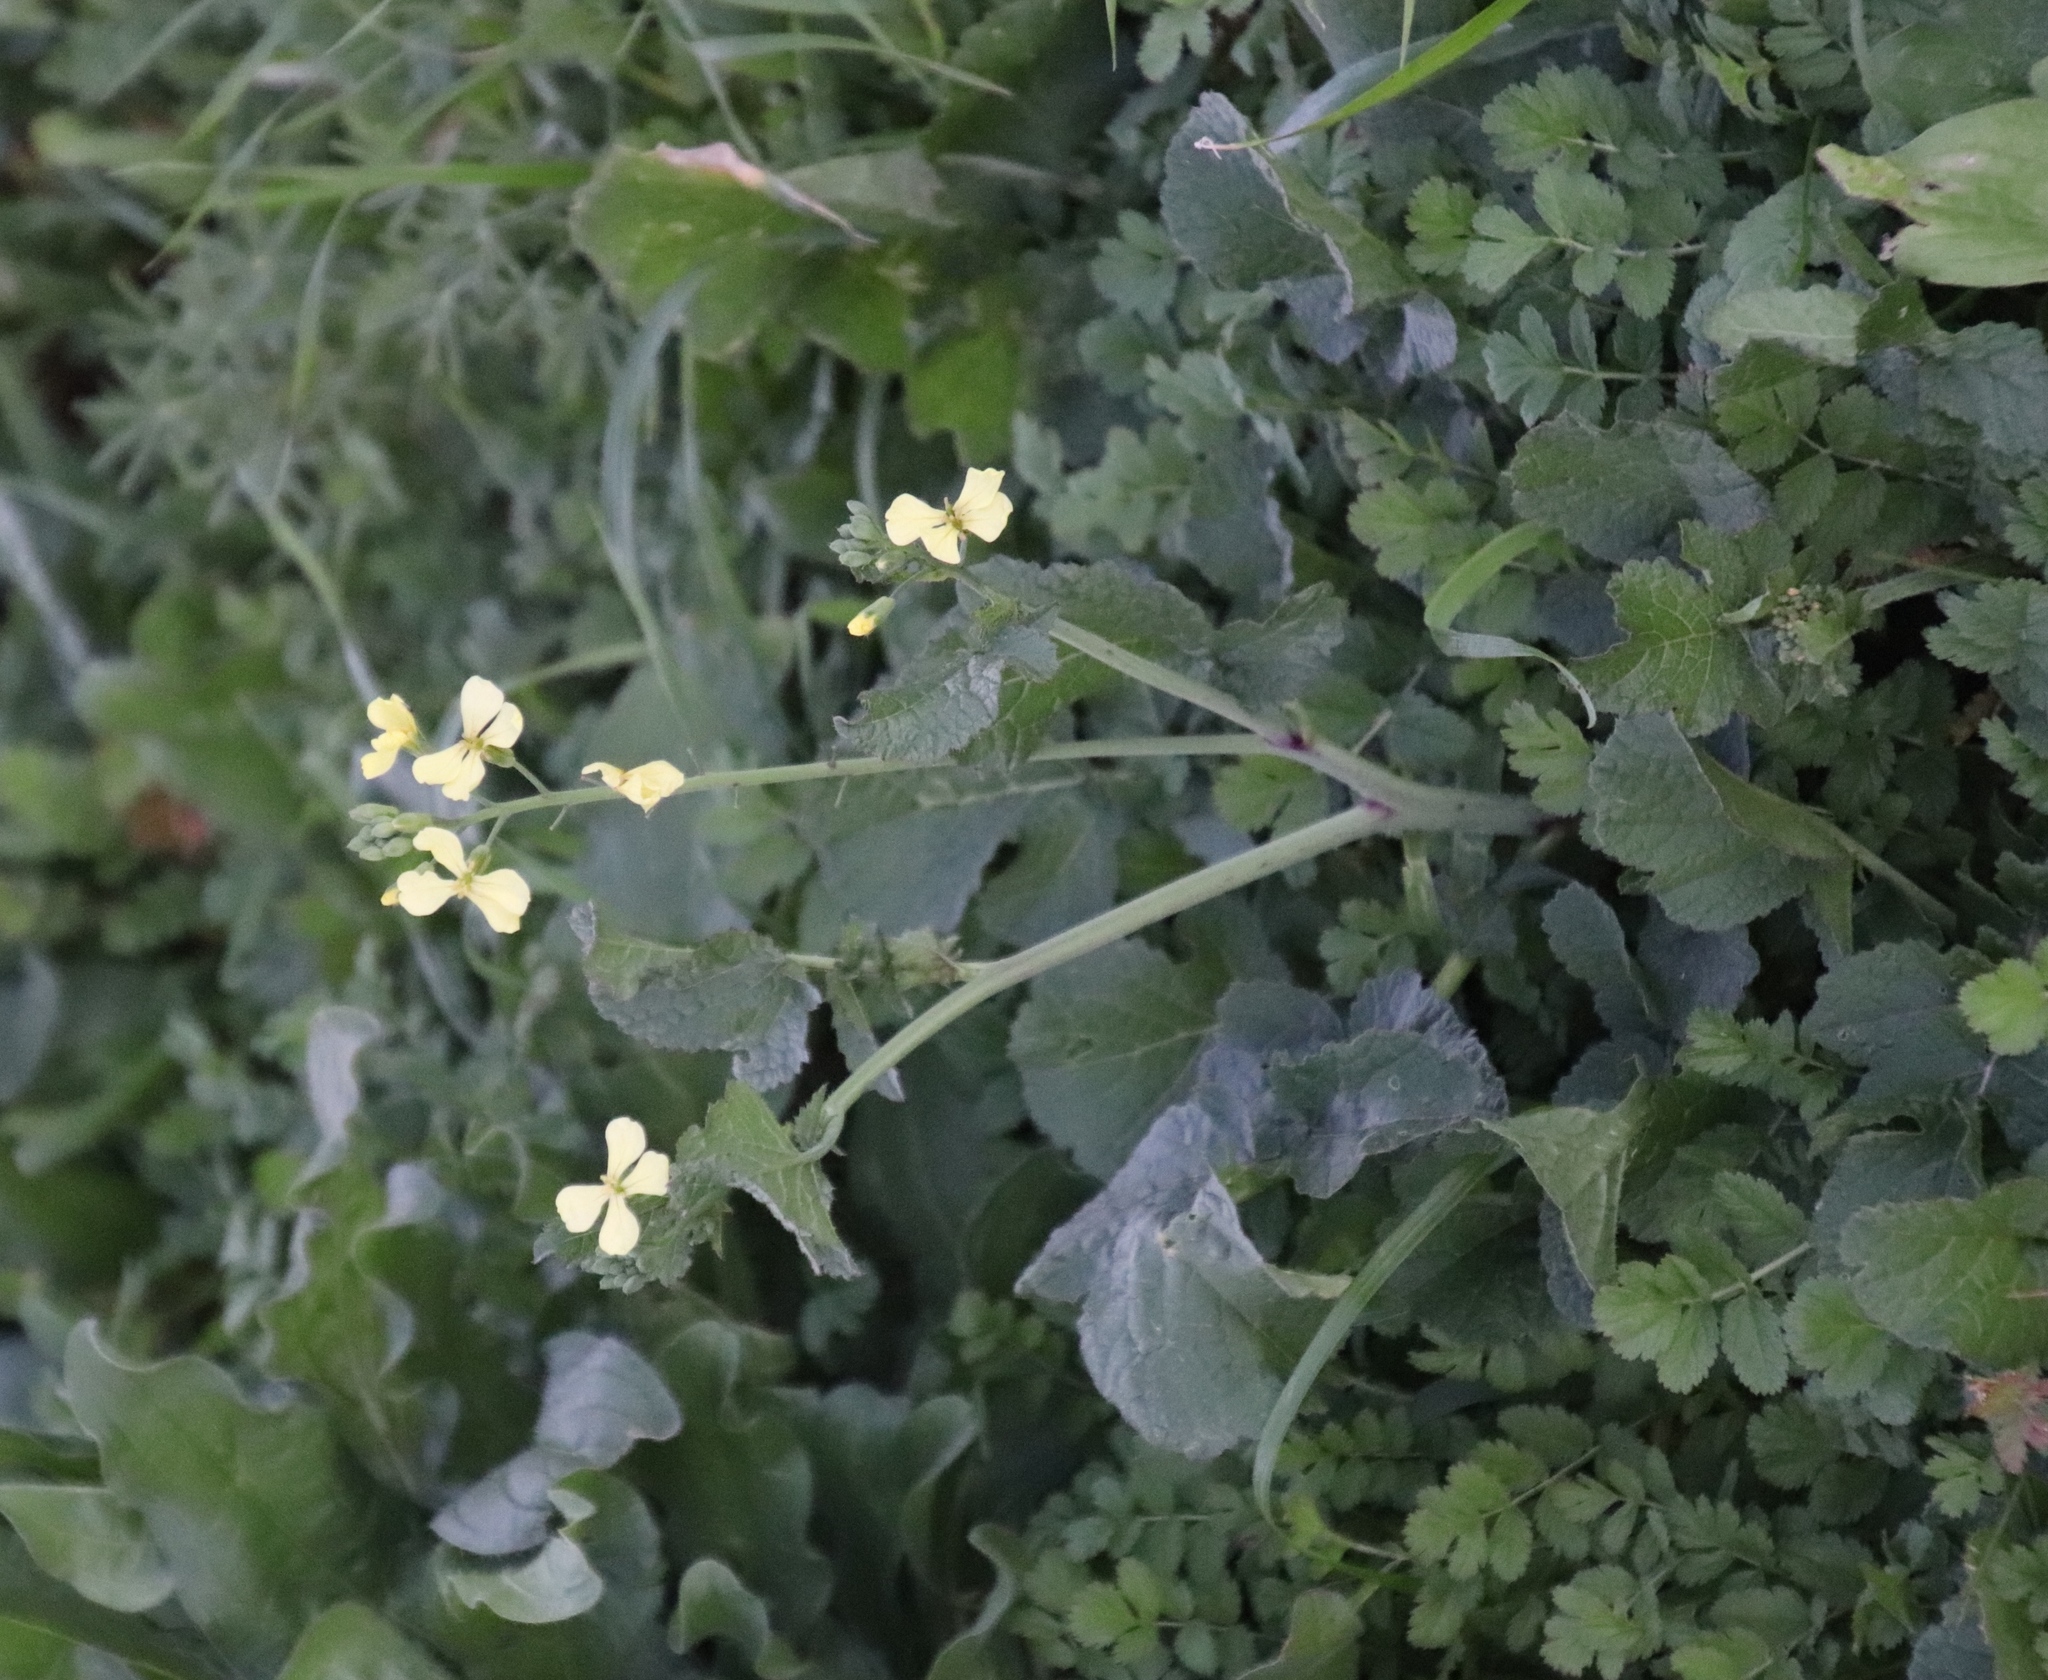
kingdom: Plantae
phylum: Tracheophyta
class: Magnoliopsida
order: Brassicales
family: Brassicaceae
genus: Raphanus
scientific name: Raphanus raphanistrum
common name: Wild radish
